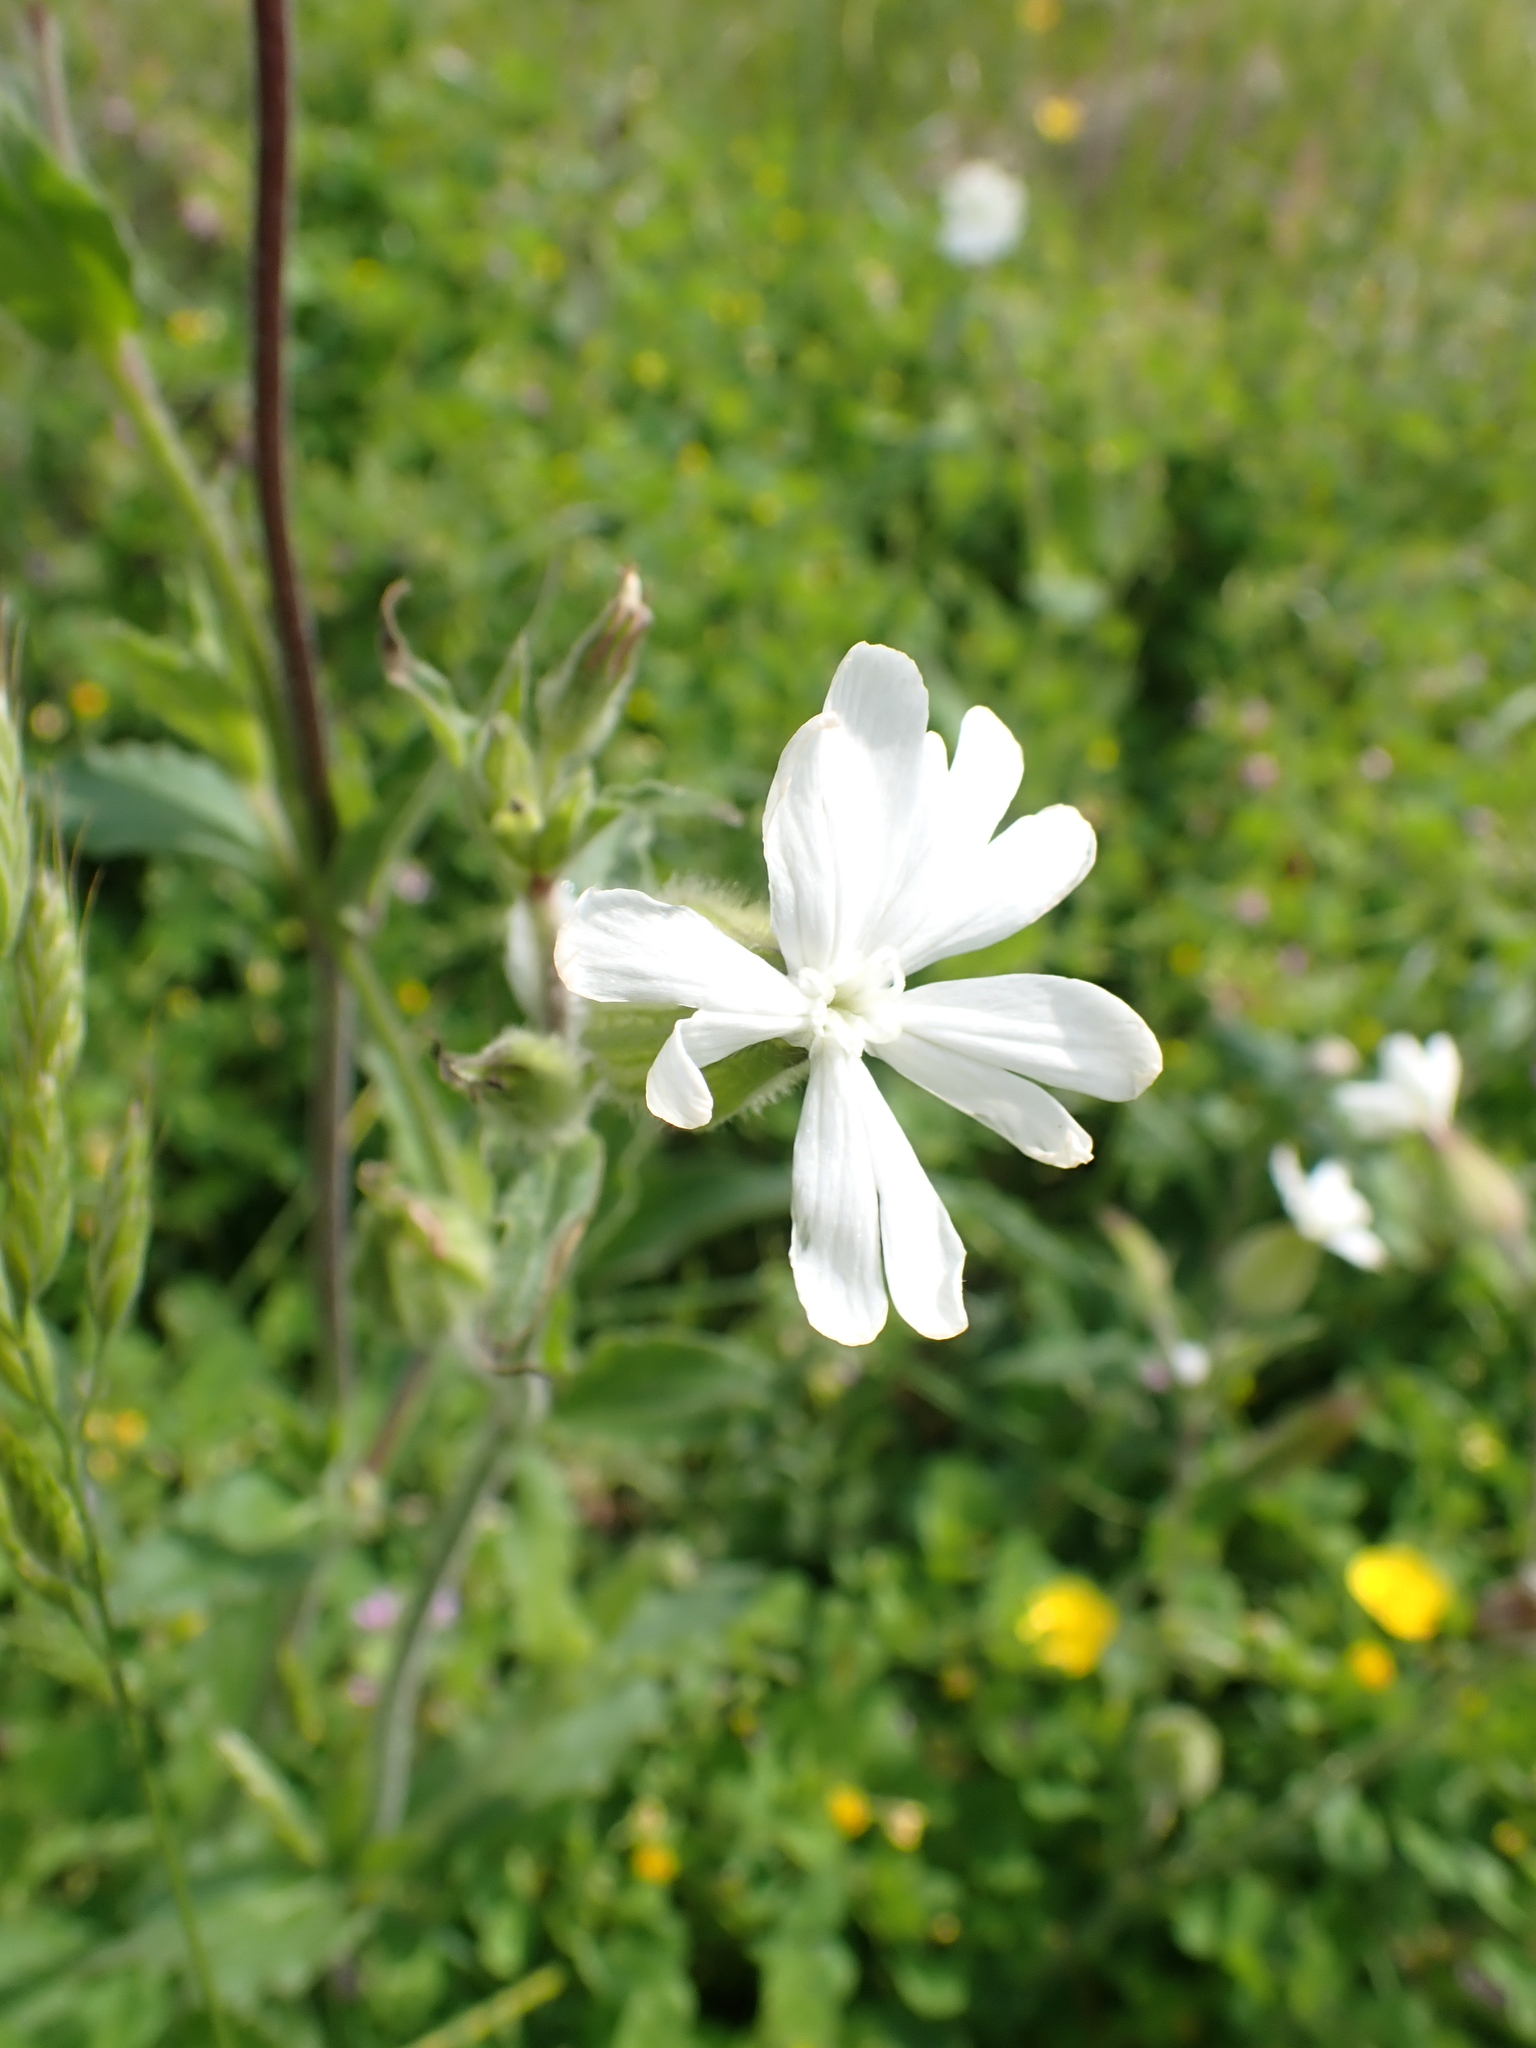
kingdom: Plantae
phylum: Tracheophyta
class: Magnoliopsida
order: Caryophyllales
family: Caryophyllaceae
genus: Silene
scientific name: Silene latifolia
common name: White campion
